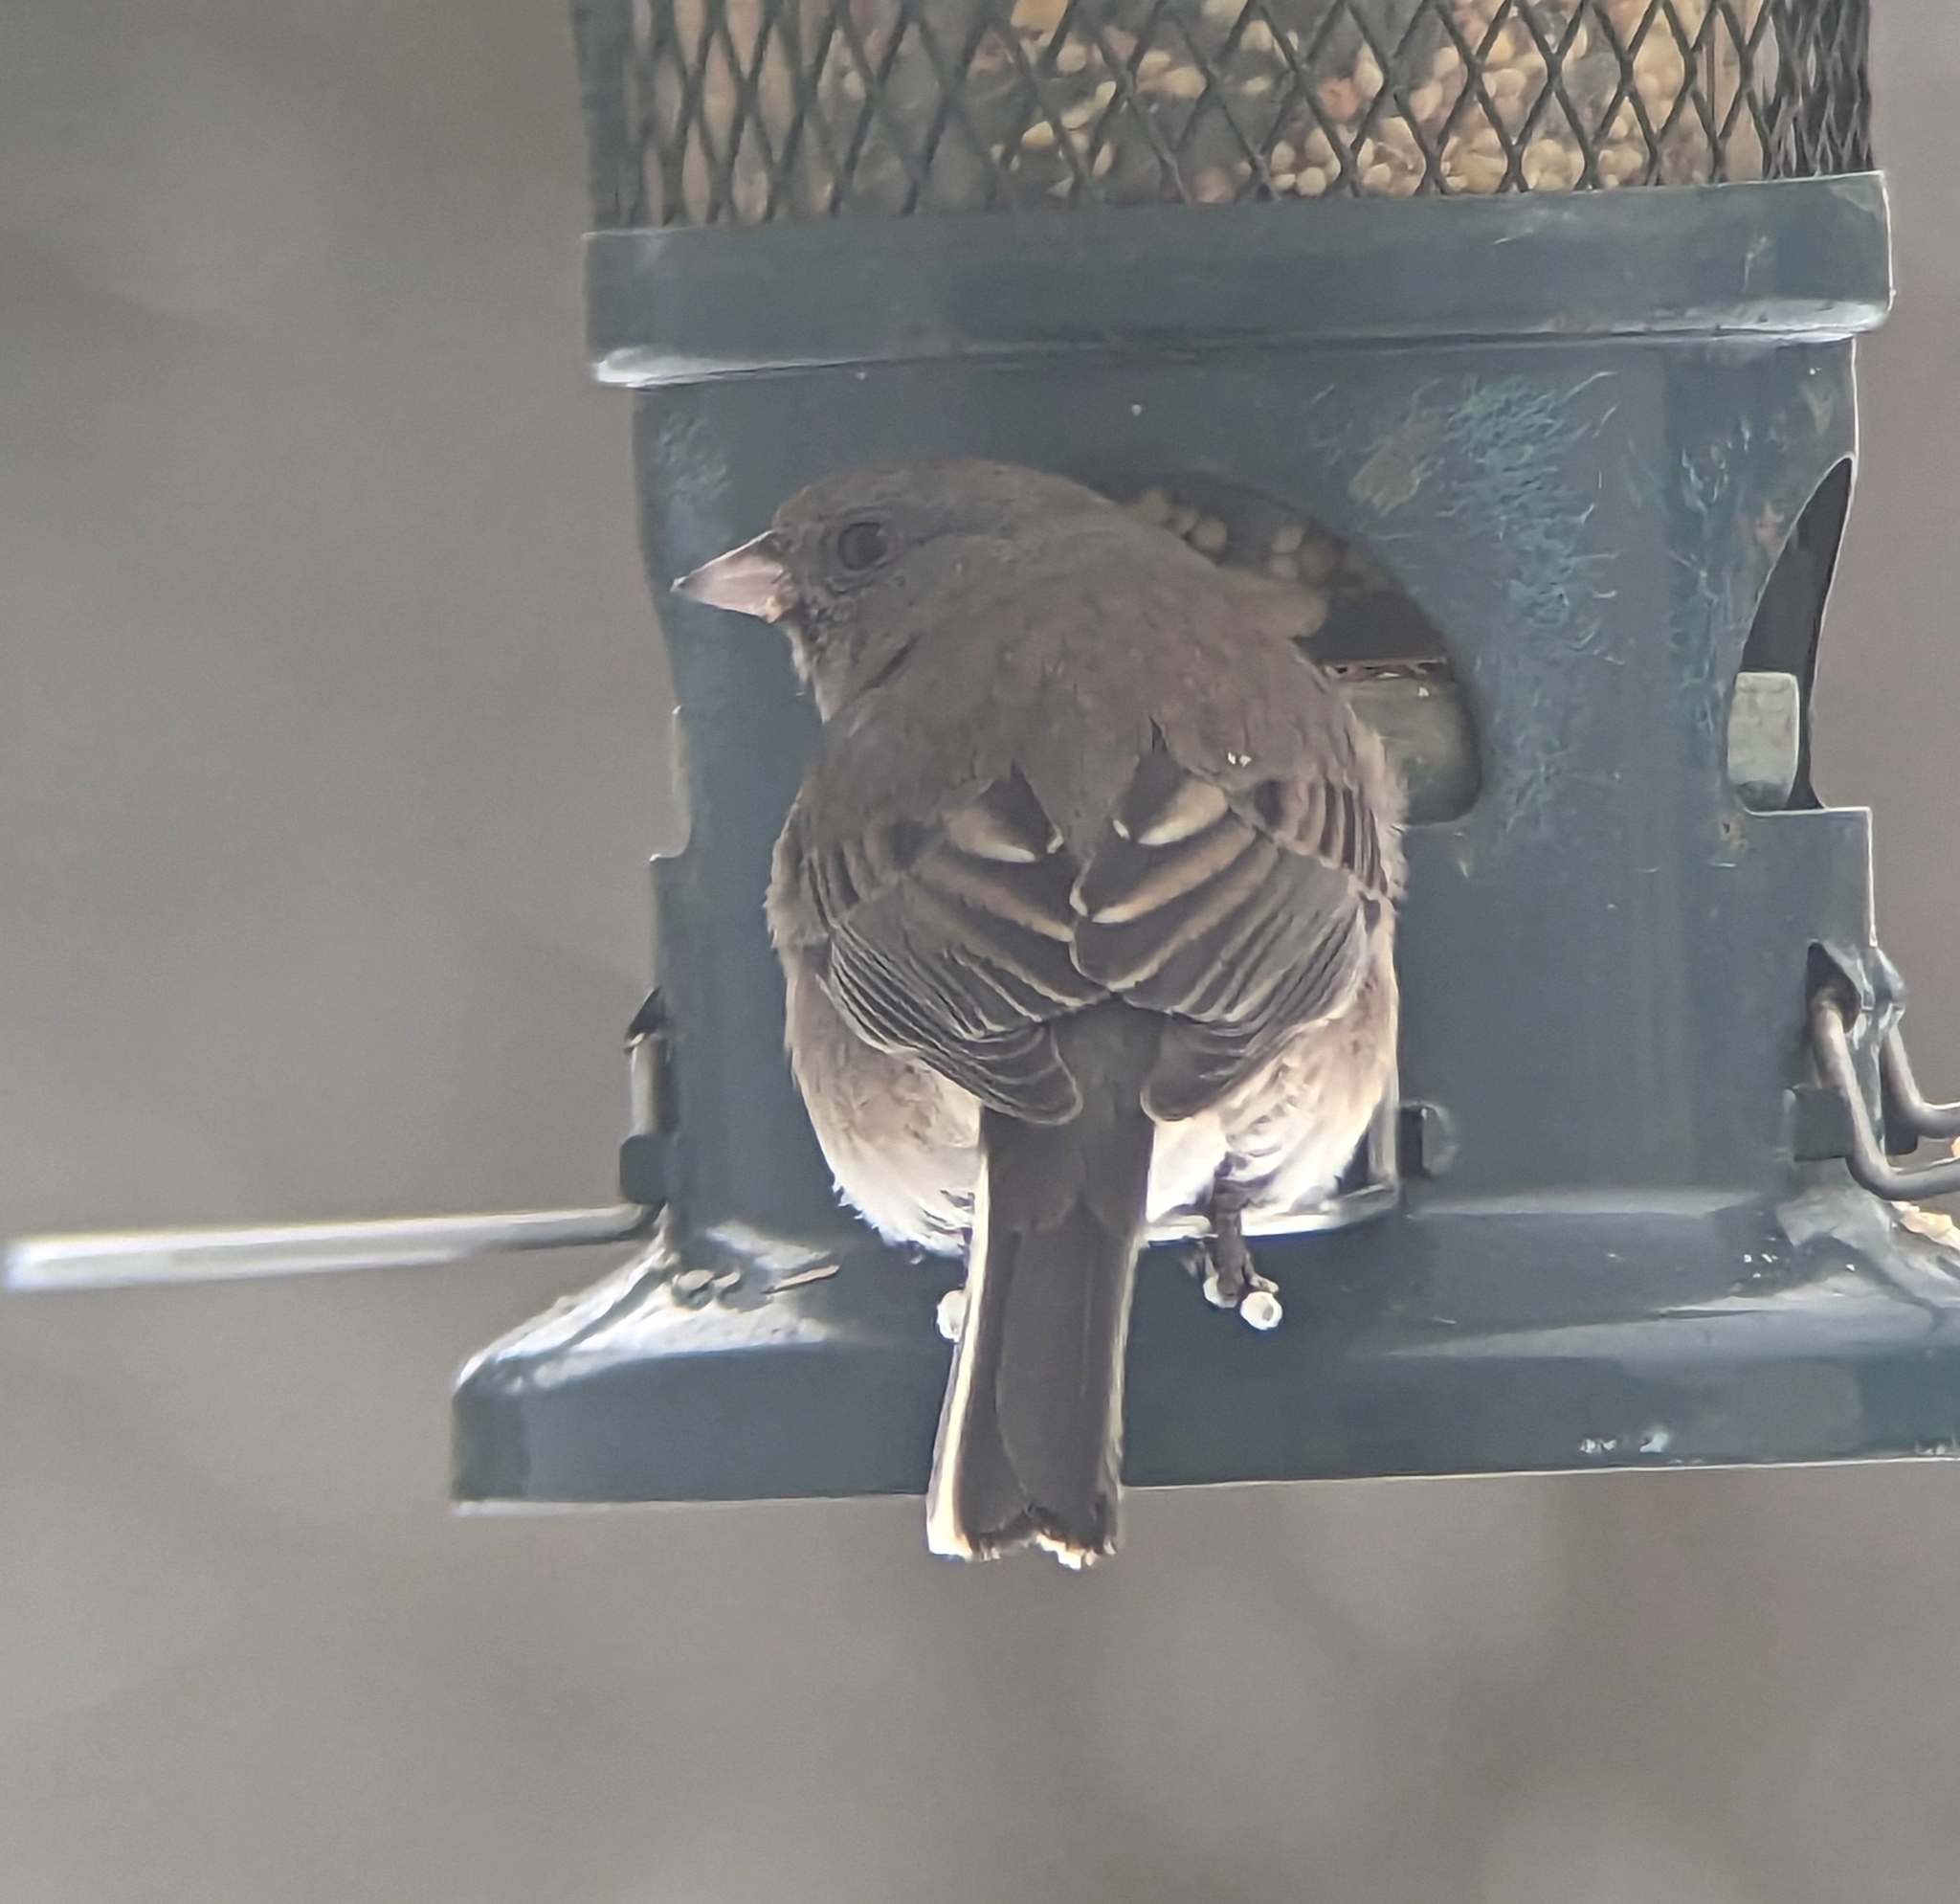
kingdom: Animalia
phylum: Chordata
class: Aves
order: Passeriformes
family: Passerellidae
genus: Junco
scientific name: Junco hyemalis
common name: Dark-eyed junco
